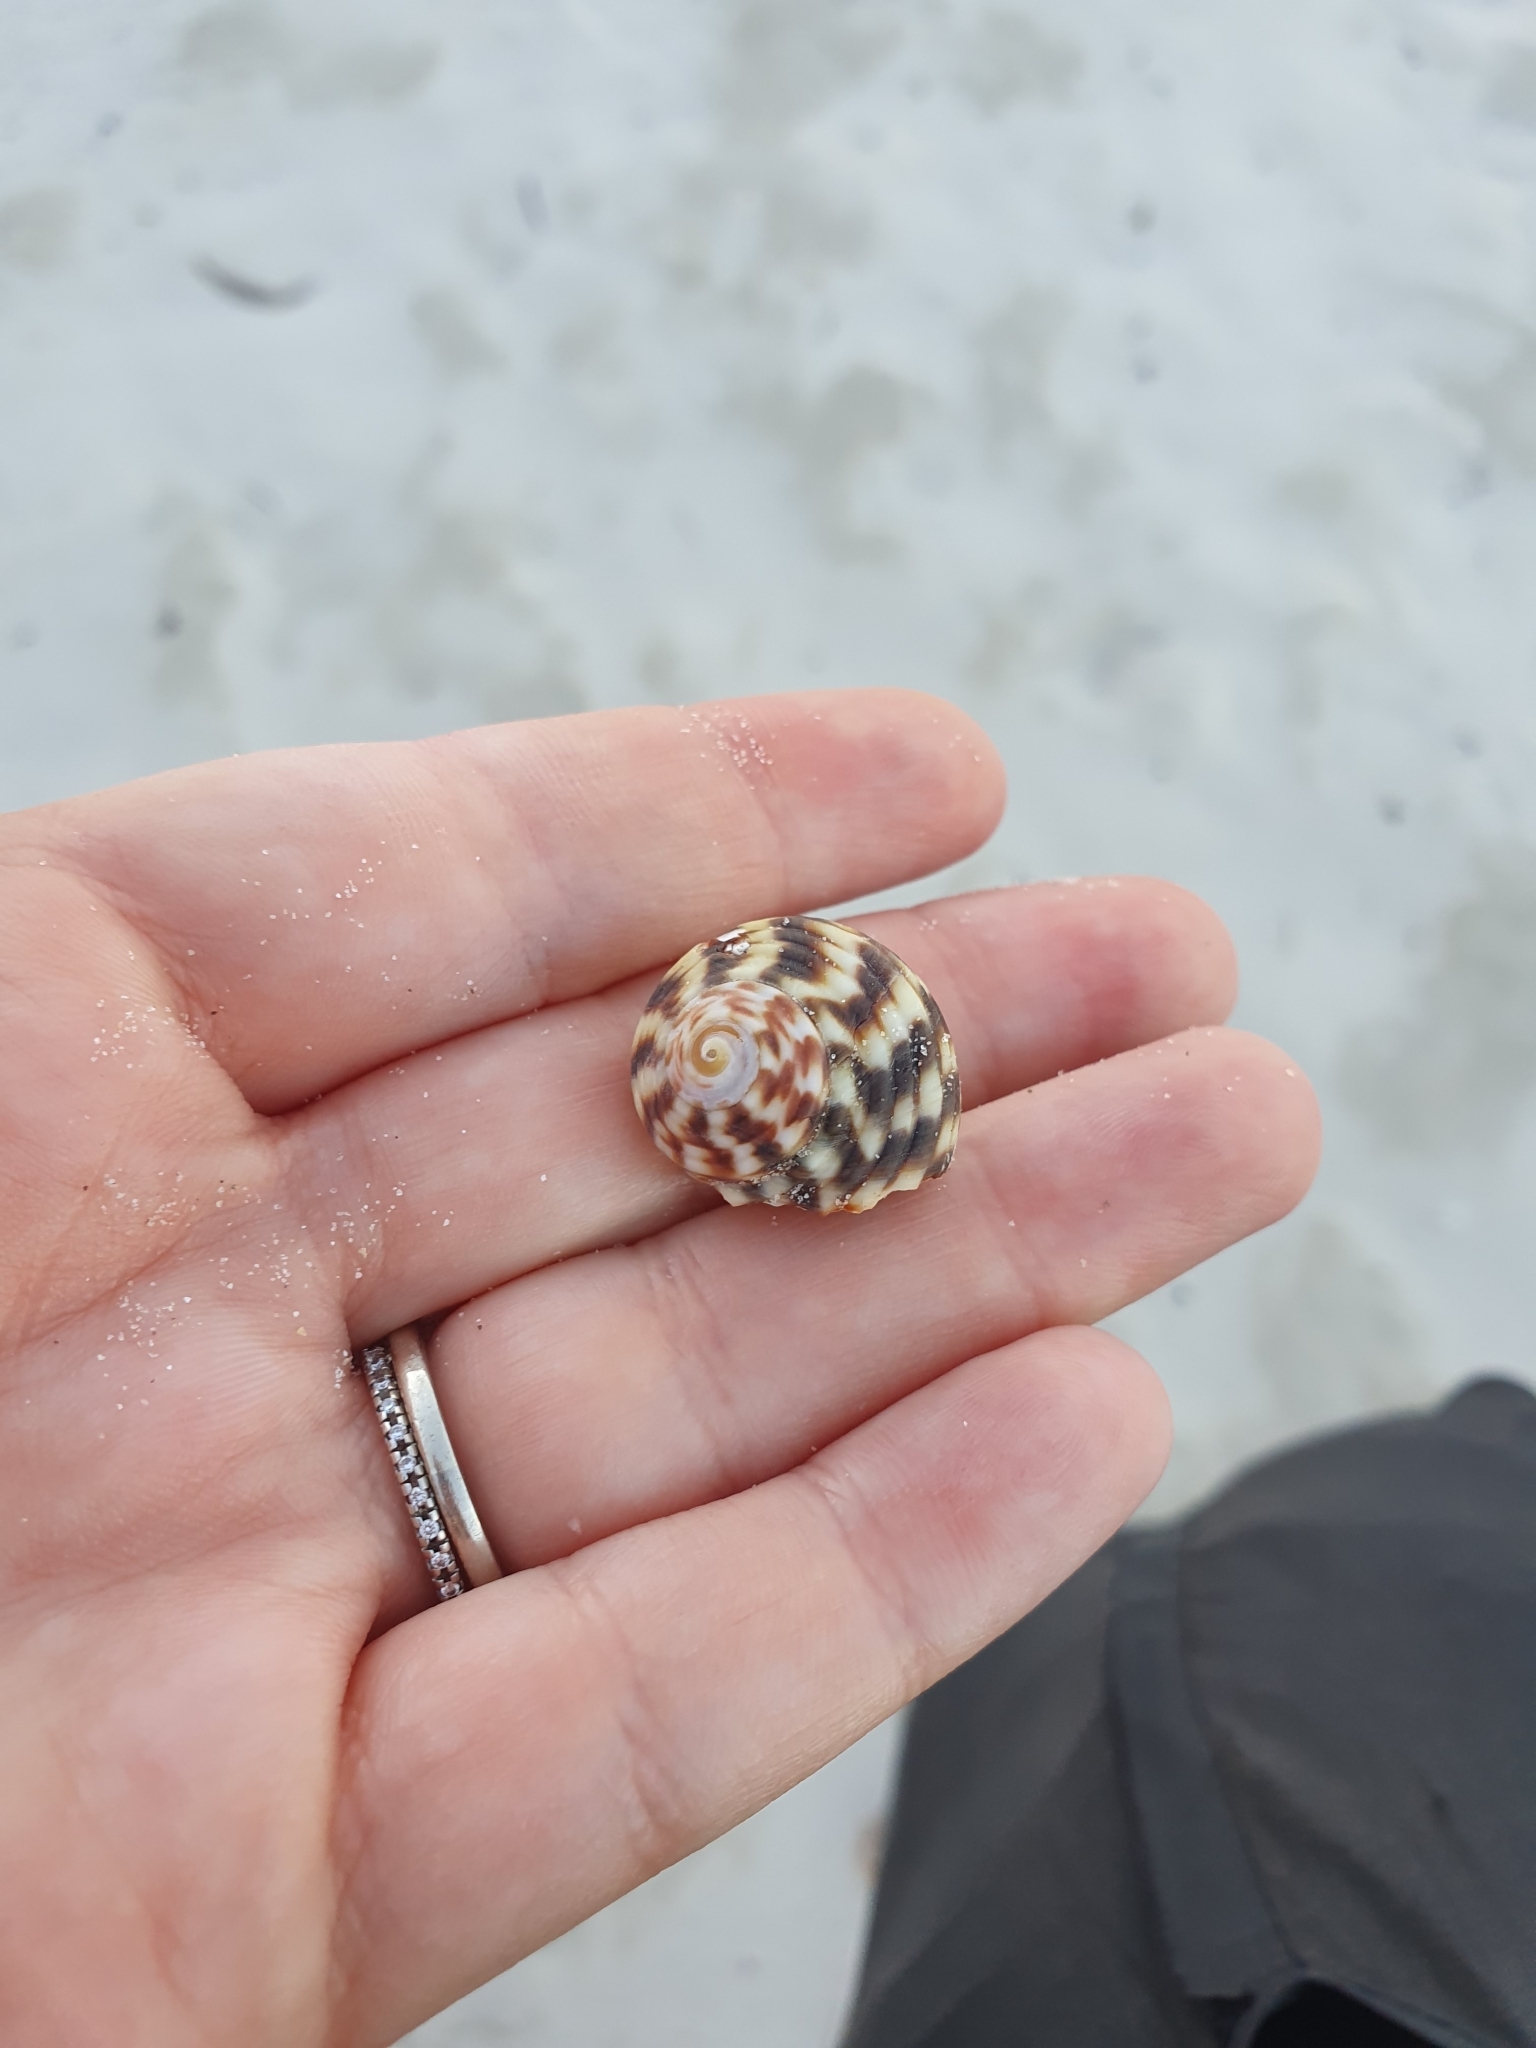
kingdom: Animalia
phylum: Mollusca
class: Gastropoda
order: Trochida
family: Turbinidae
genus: Lunella
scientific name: Lunella undulata
